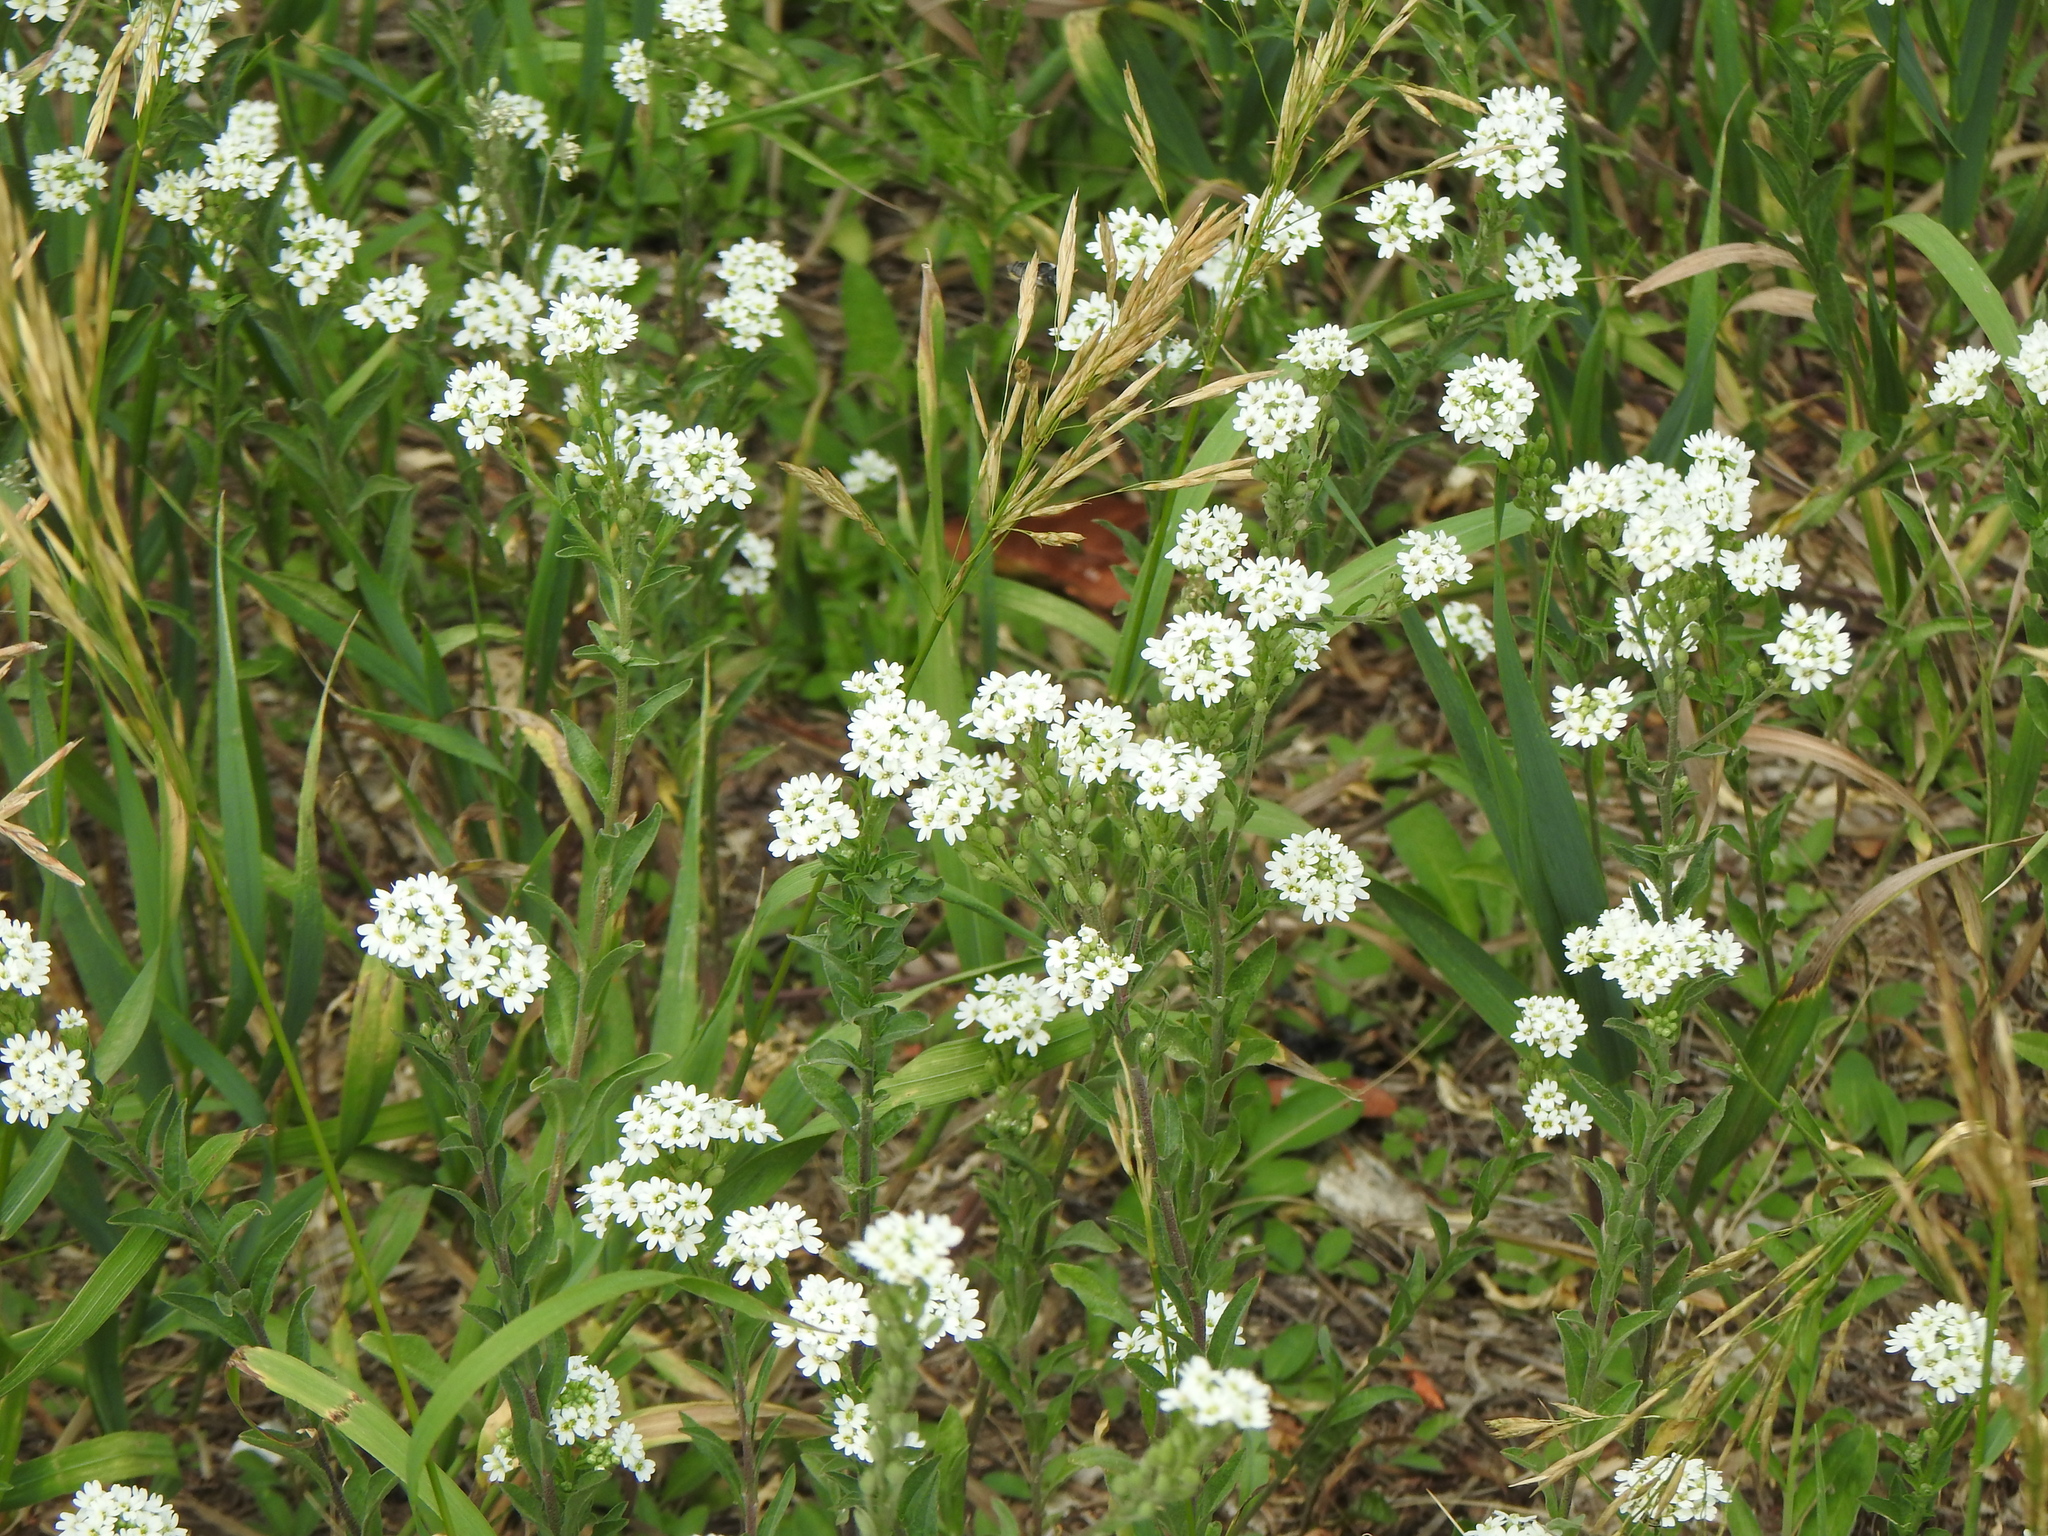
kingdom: Plantae
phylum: Tracheophyta
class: Magnoliopsida
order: Brassicales
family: Brassicaceae
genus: Berteroa
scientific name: Berteroa incana
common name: Hoary alison
